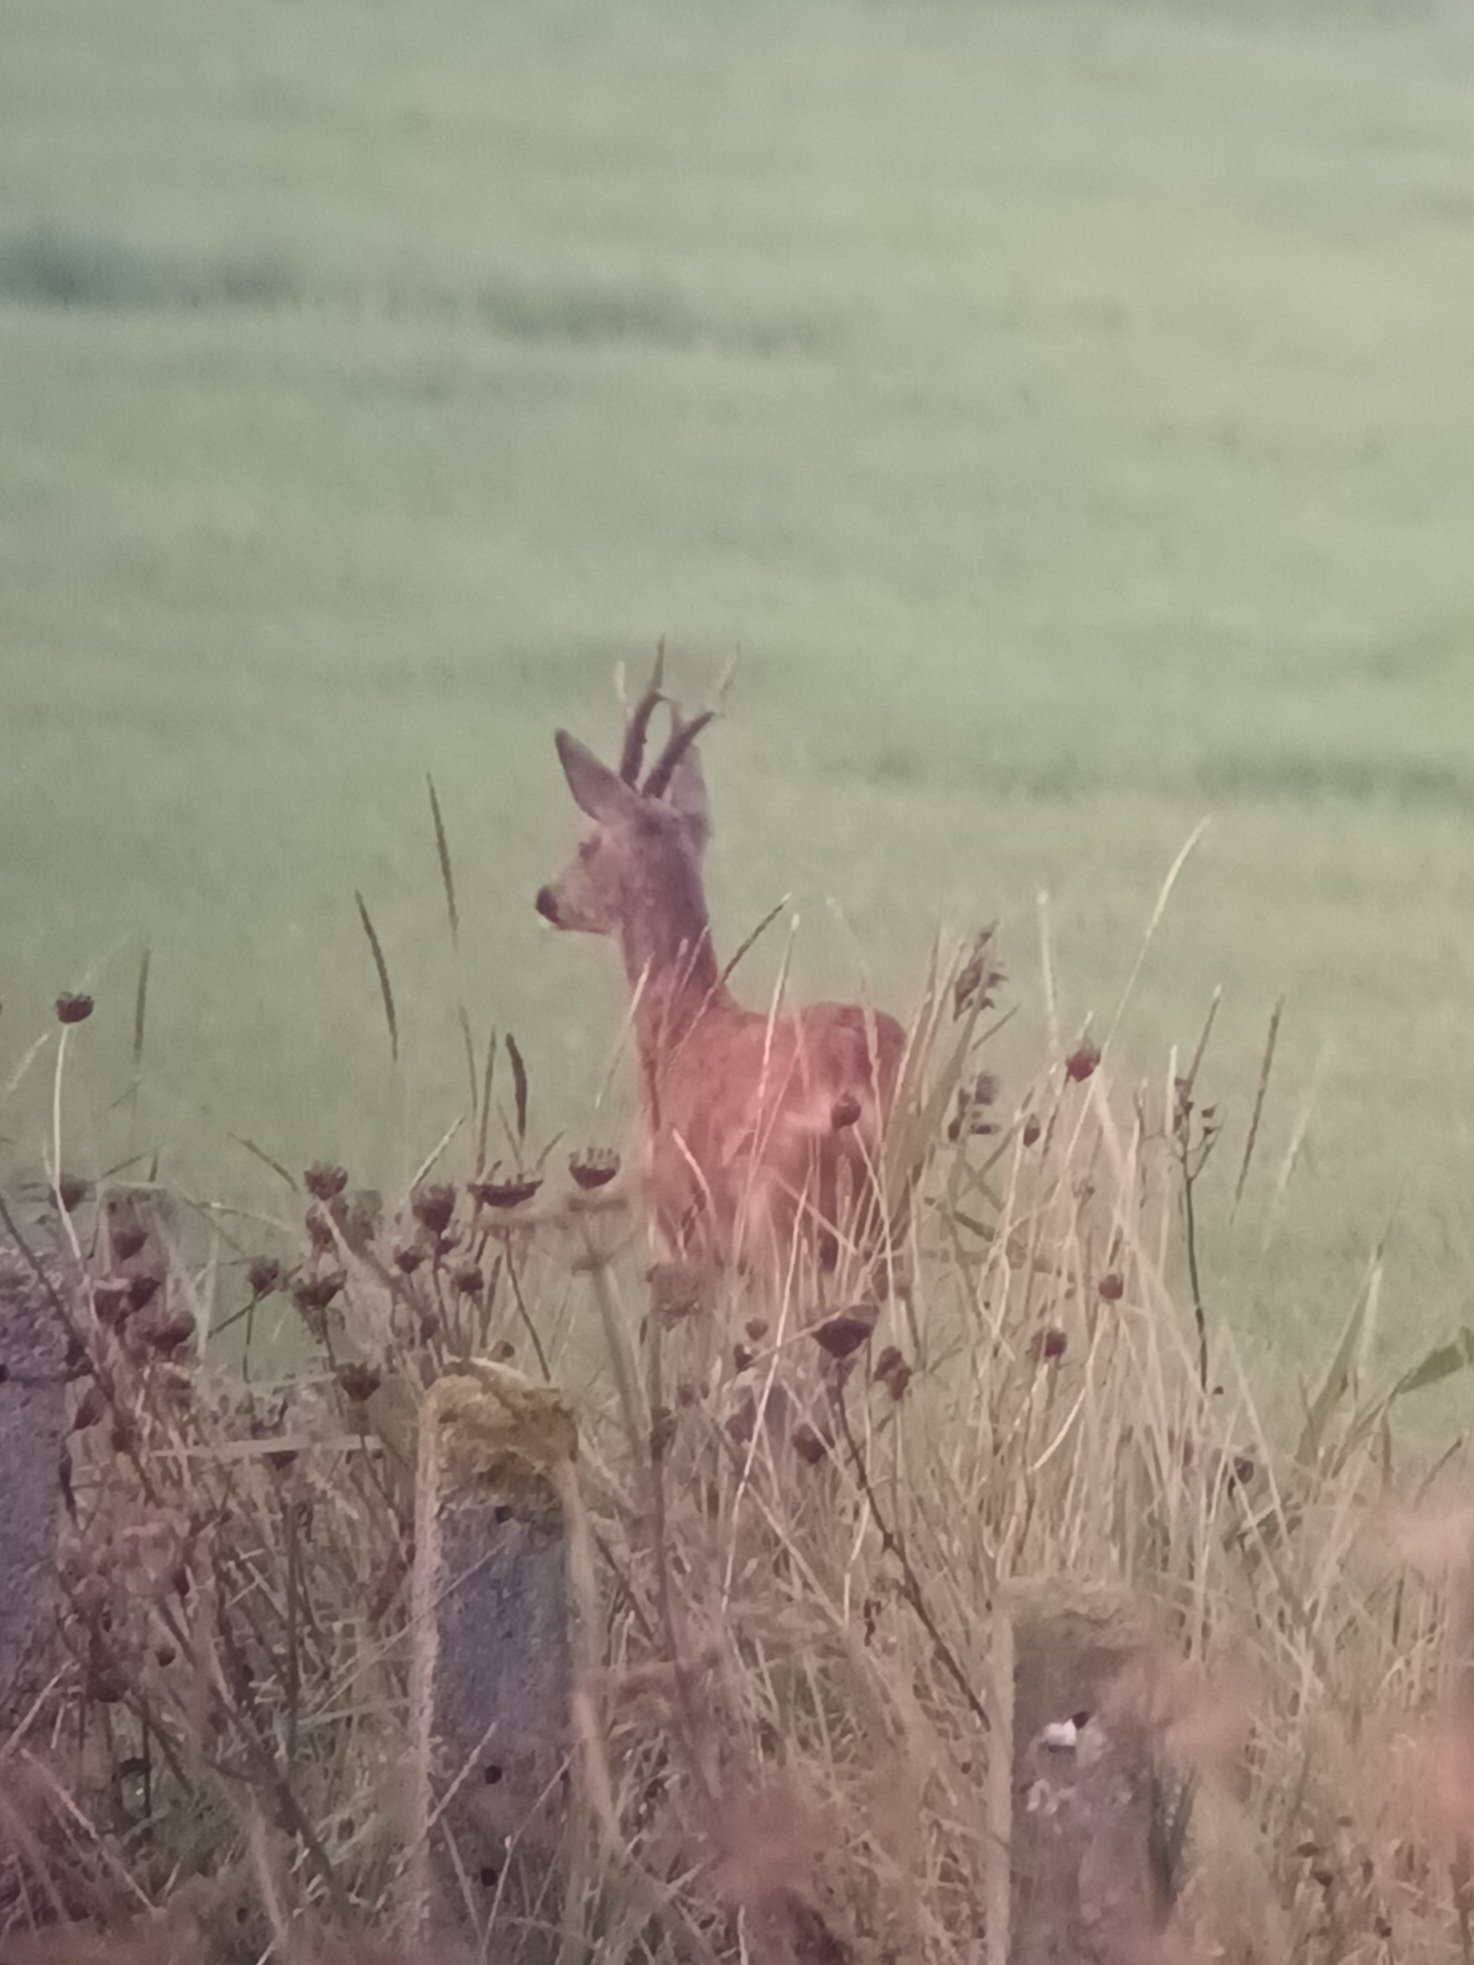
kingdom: Animalia
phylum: Chordata
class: Mammalia
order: Artiodactyla
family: Cervidae
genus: Capreolus
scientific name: Capreolus capreolus
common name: Western roe deer
